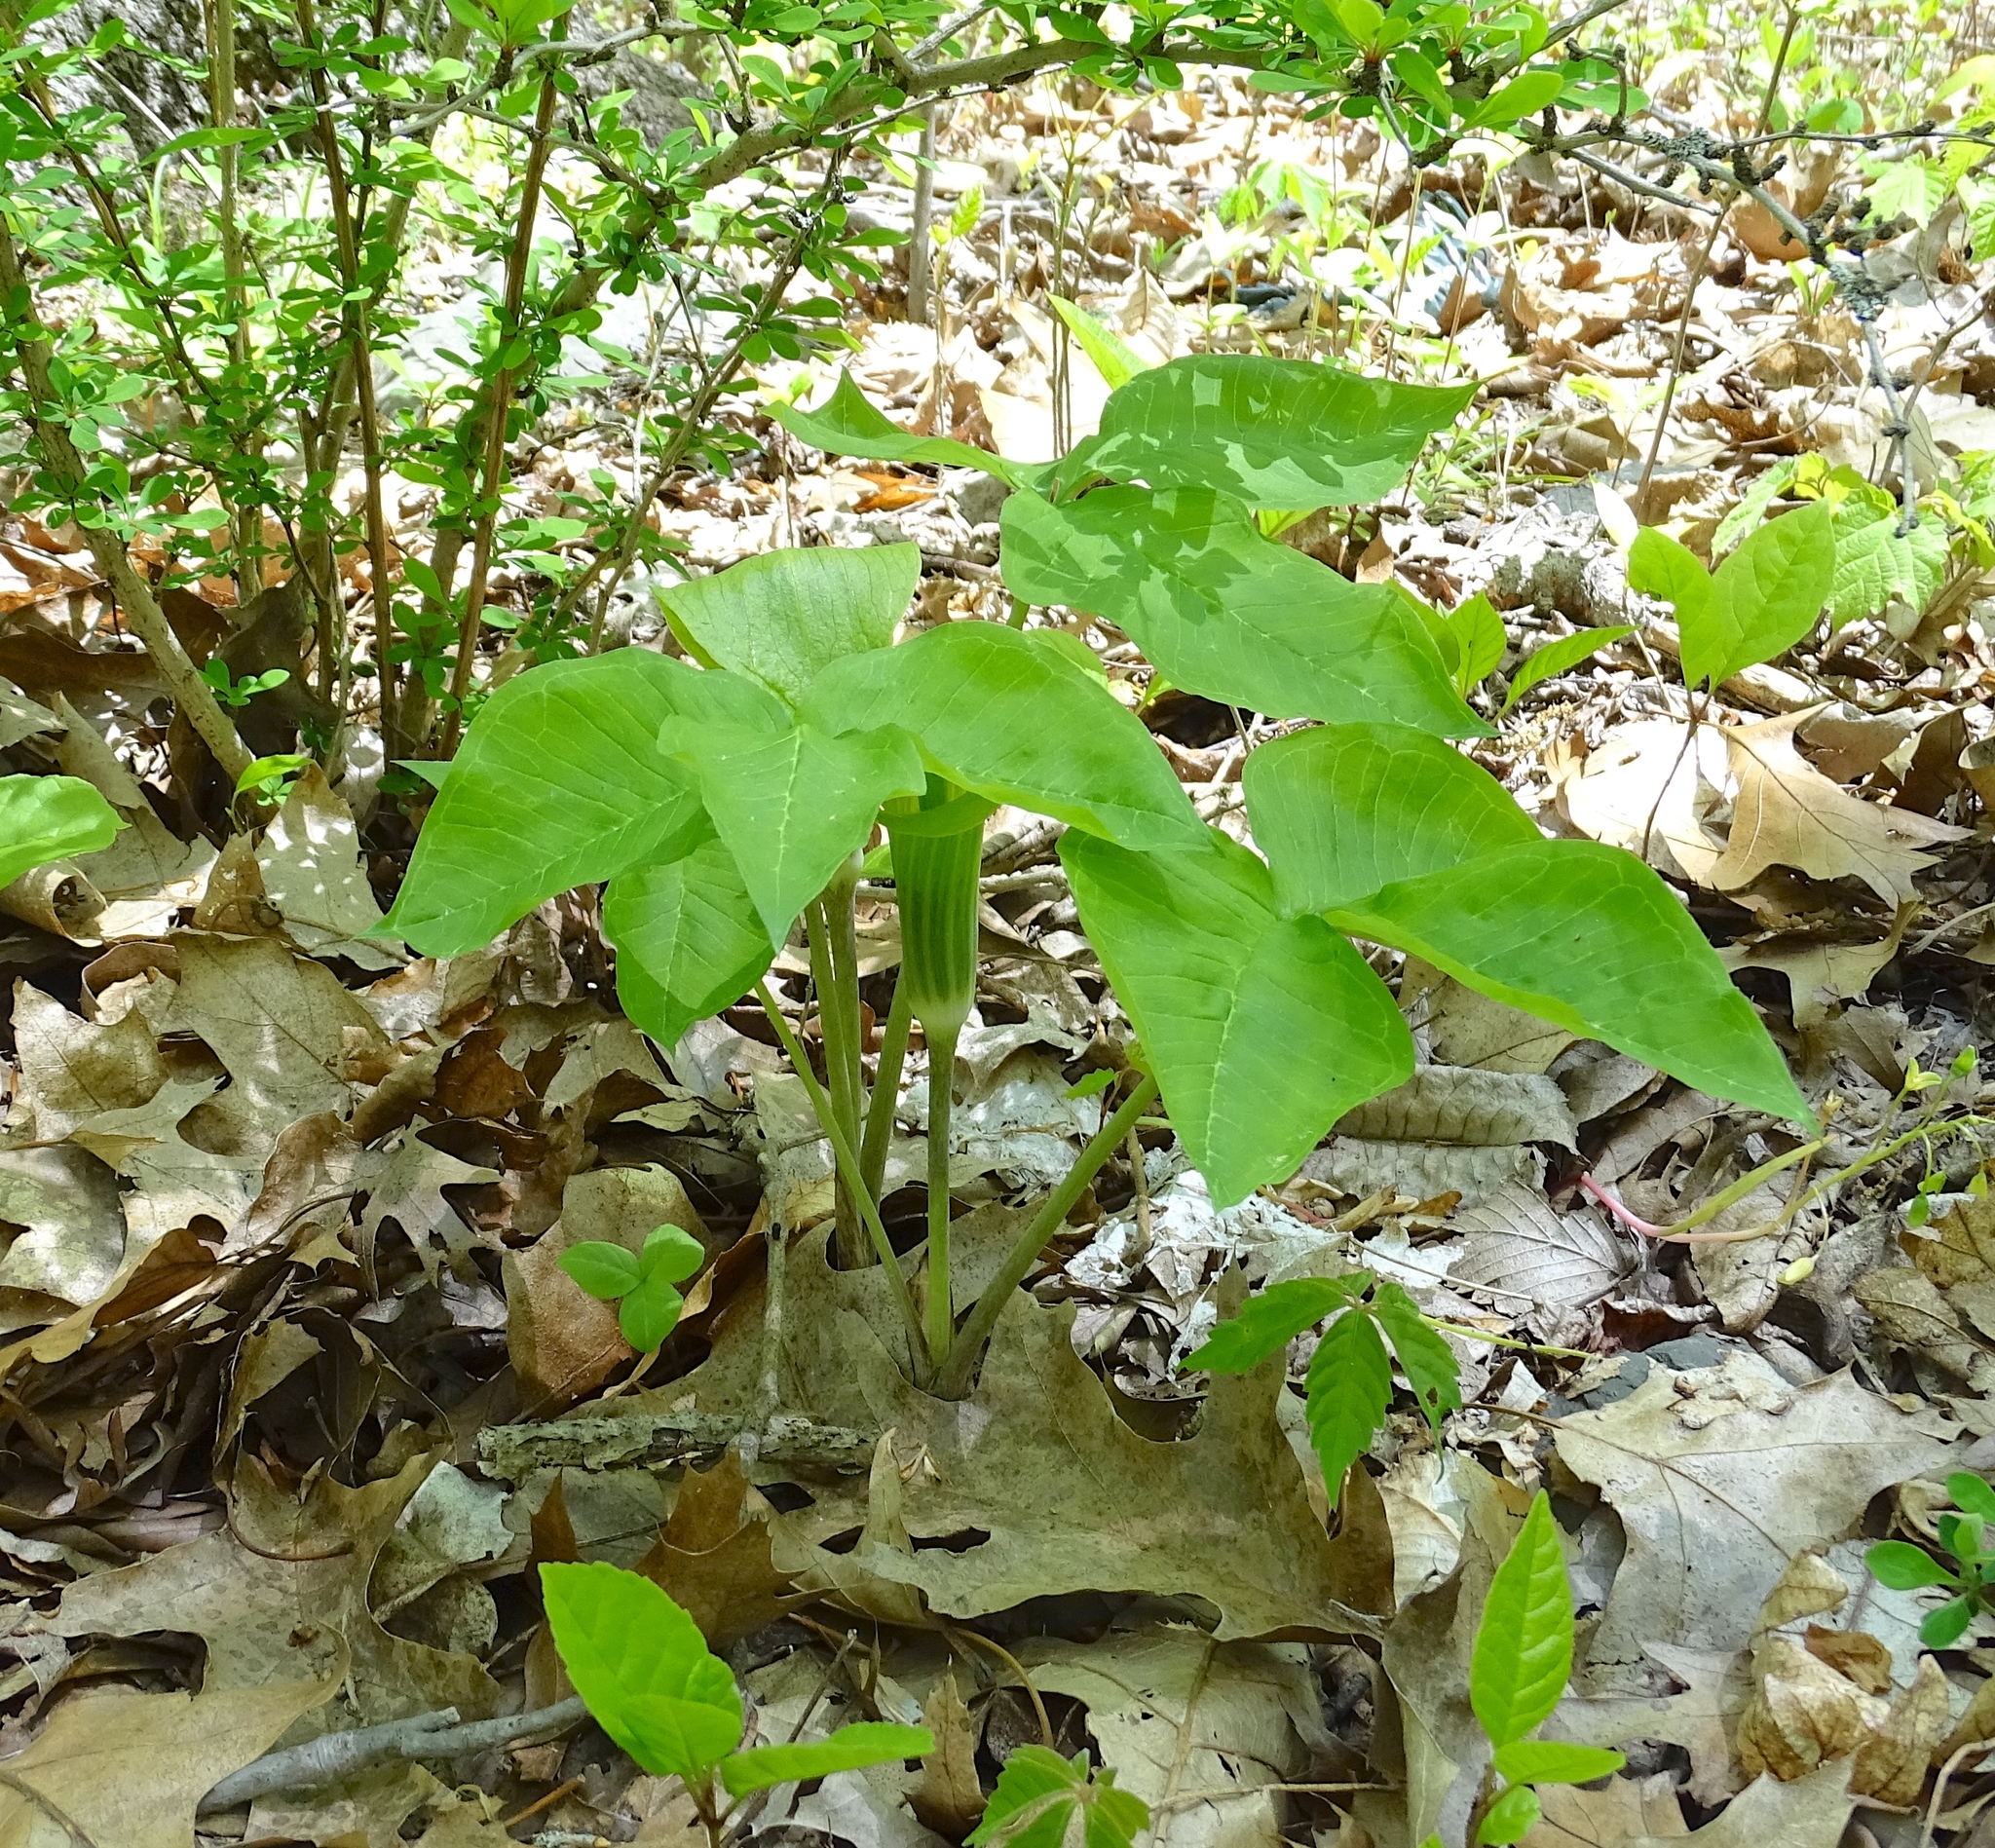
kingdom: Plantae
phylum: Tracheophyta
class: Liliopsida
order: Alismatales
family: Araceae
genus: Arisaema
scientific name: Arisaema triphyllum
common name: Jack-in-the-pulpit
